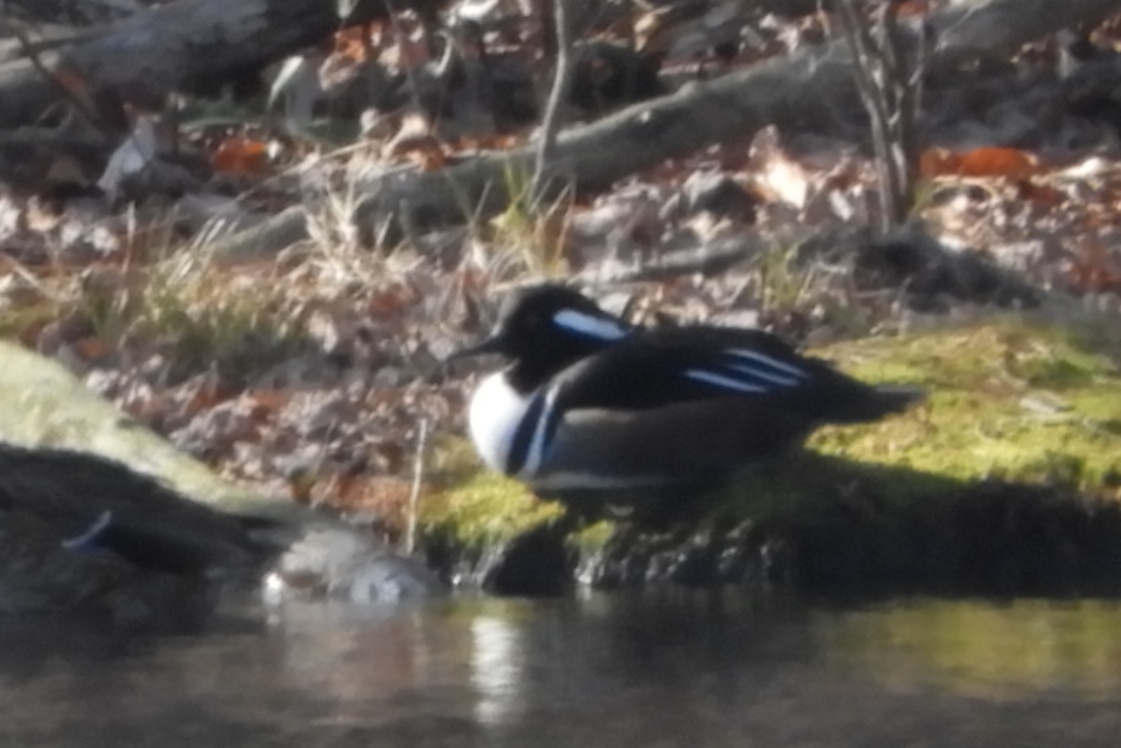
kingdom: Animalia
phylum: Chordata
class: Aves
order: Anseriformes
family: Anatidae
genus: Lophodytes
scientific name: Lophodytes cucullatus
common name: Hooded merganser
